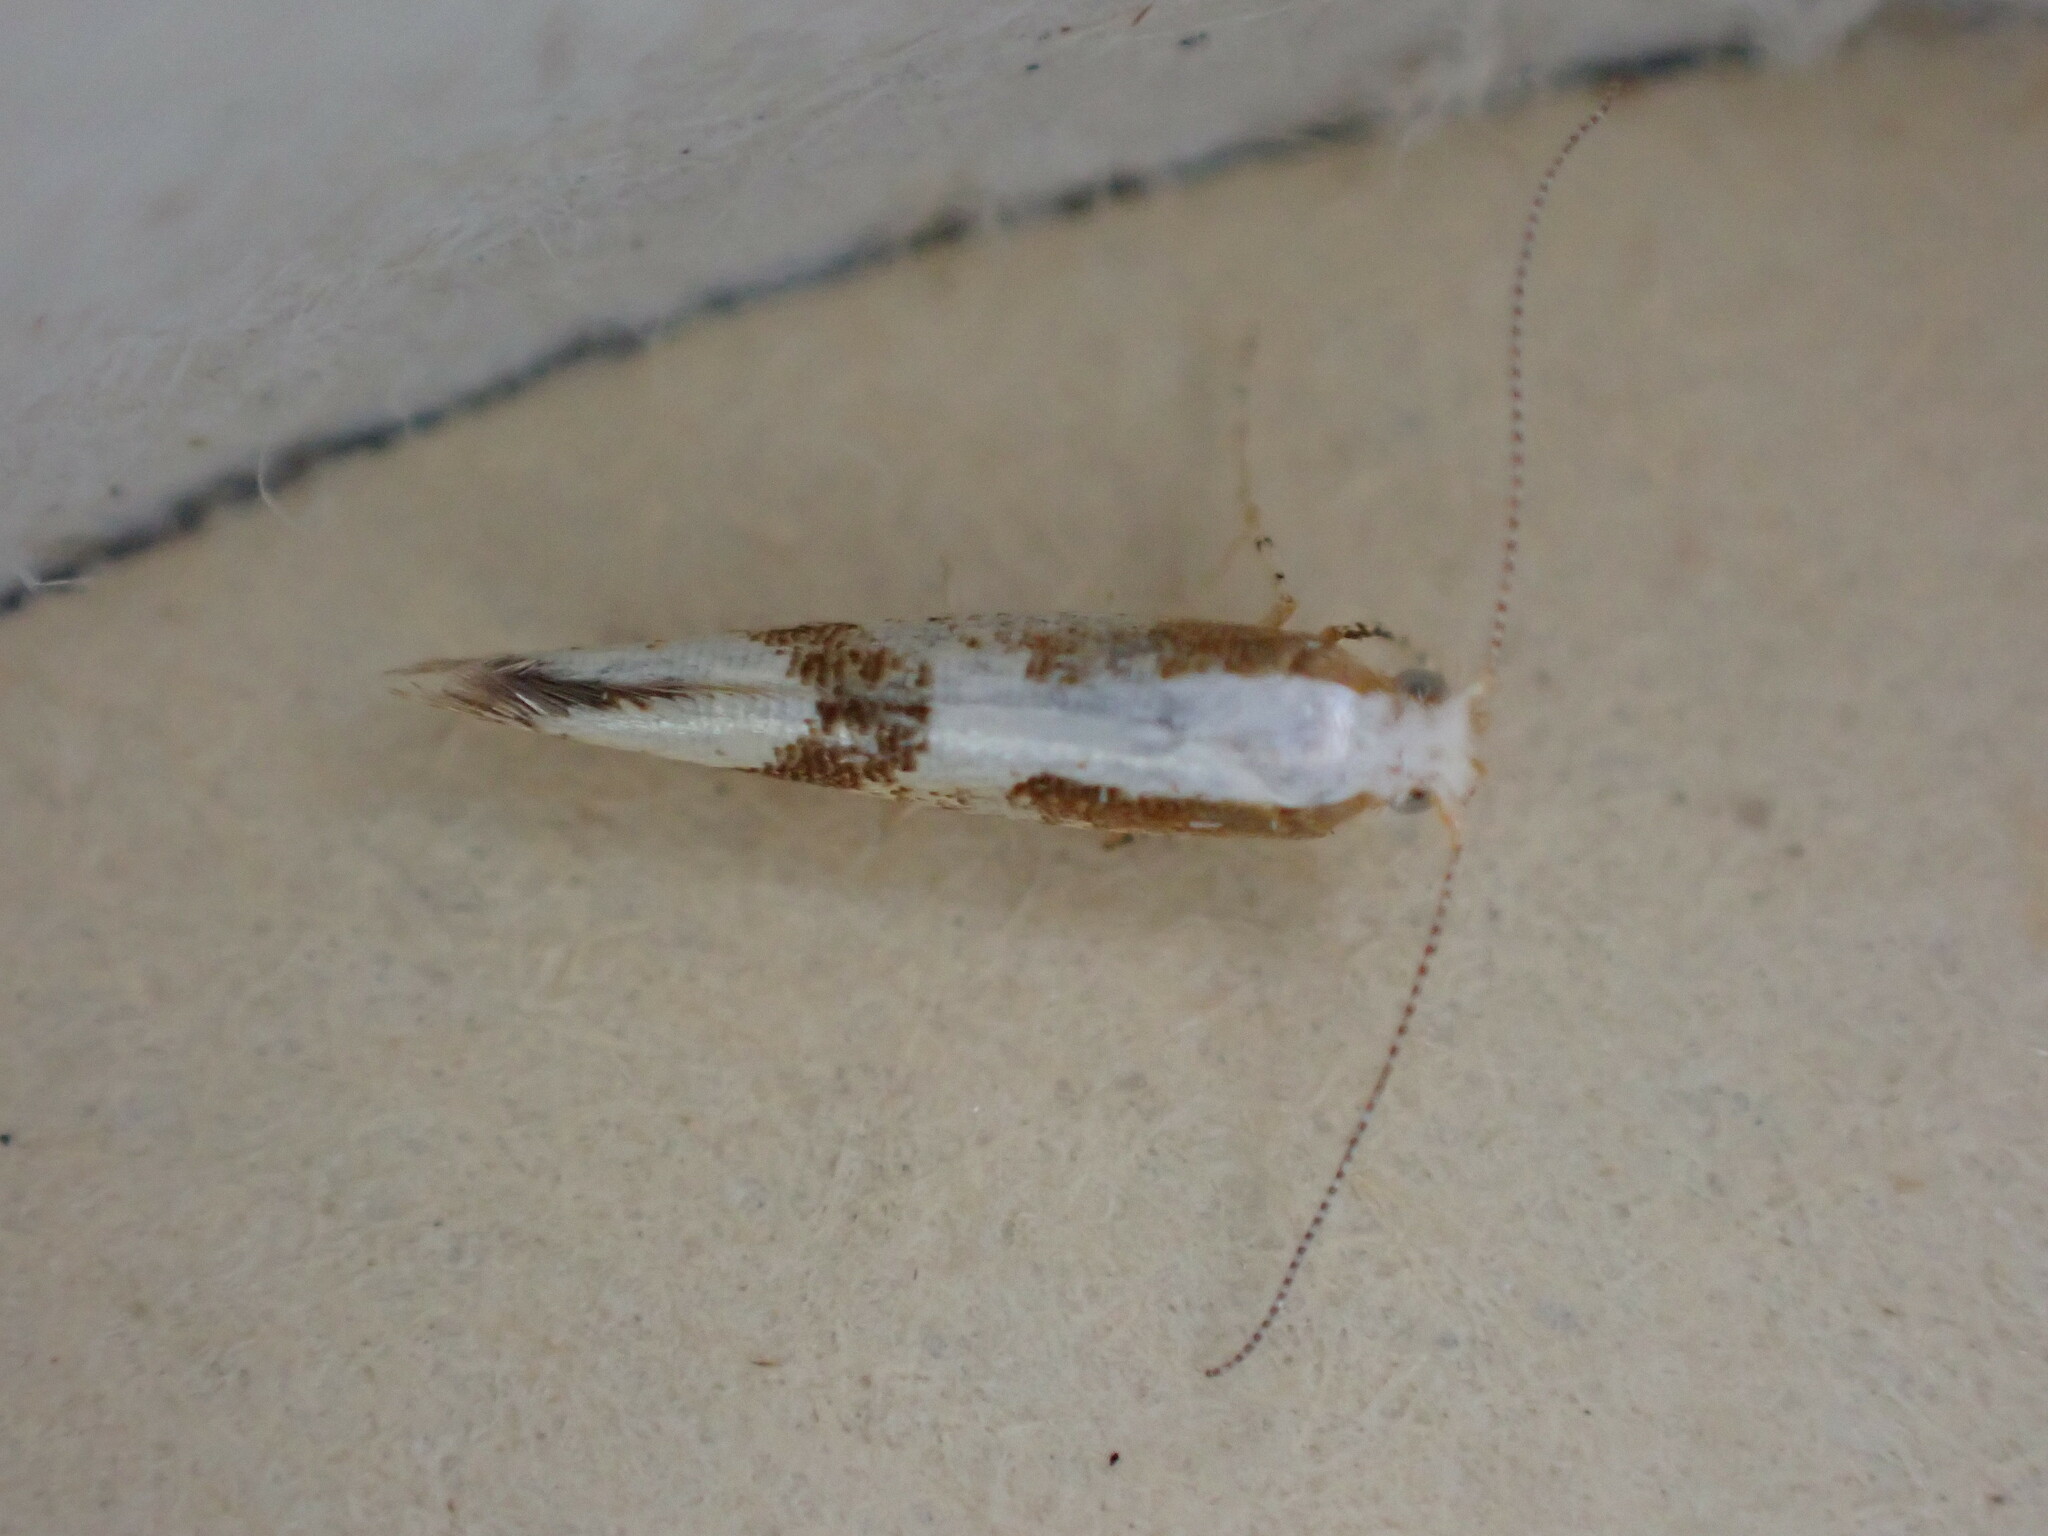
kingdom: Animalia
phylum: Arthropoda
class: Insecta
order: Lepidoptera
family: Argyresthiidae
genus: Argyresthia
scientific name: Argyresthia pruniella
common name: Cherry fruit moth
